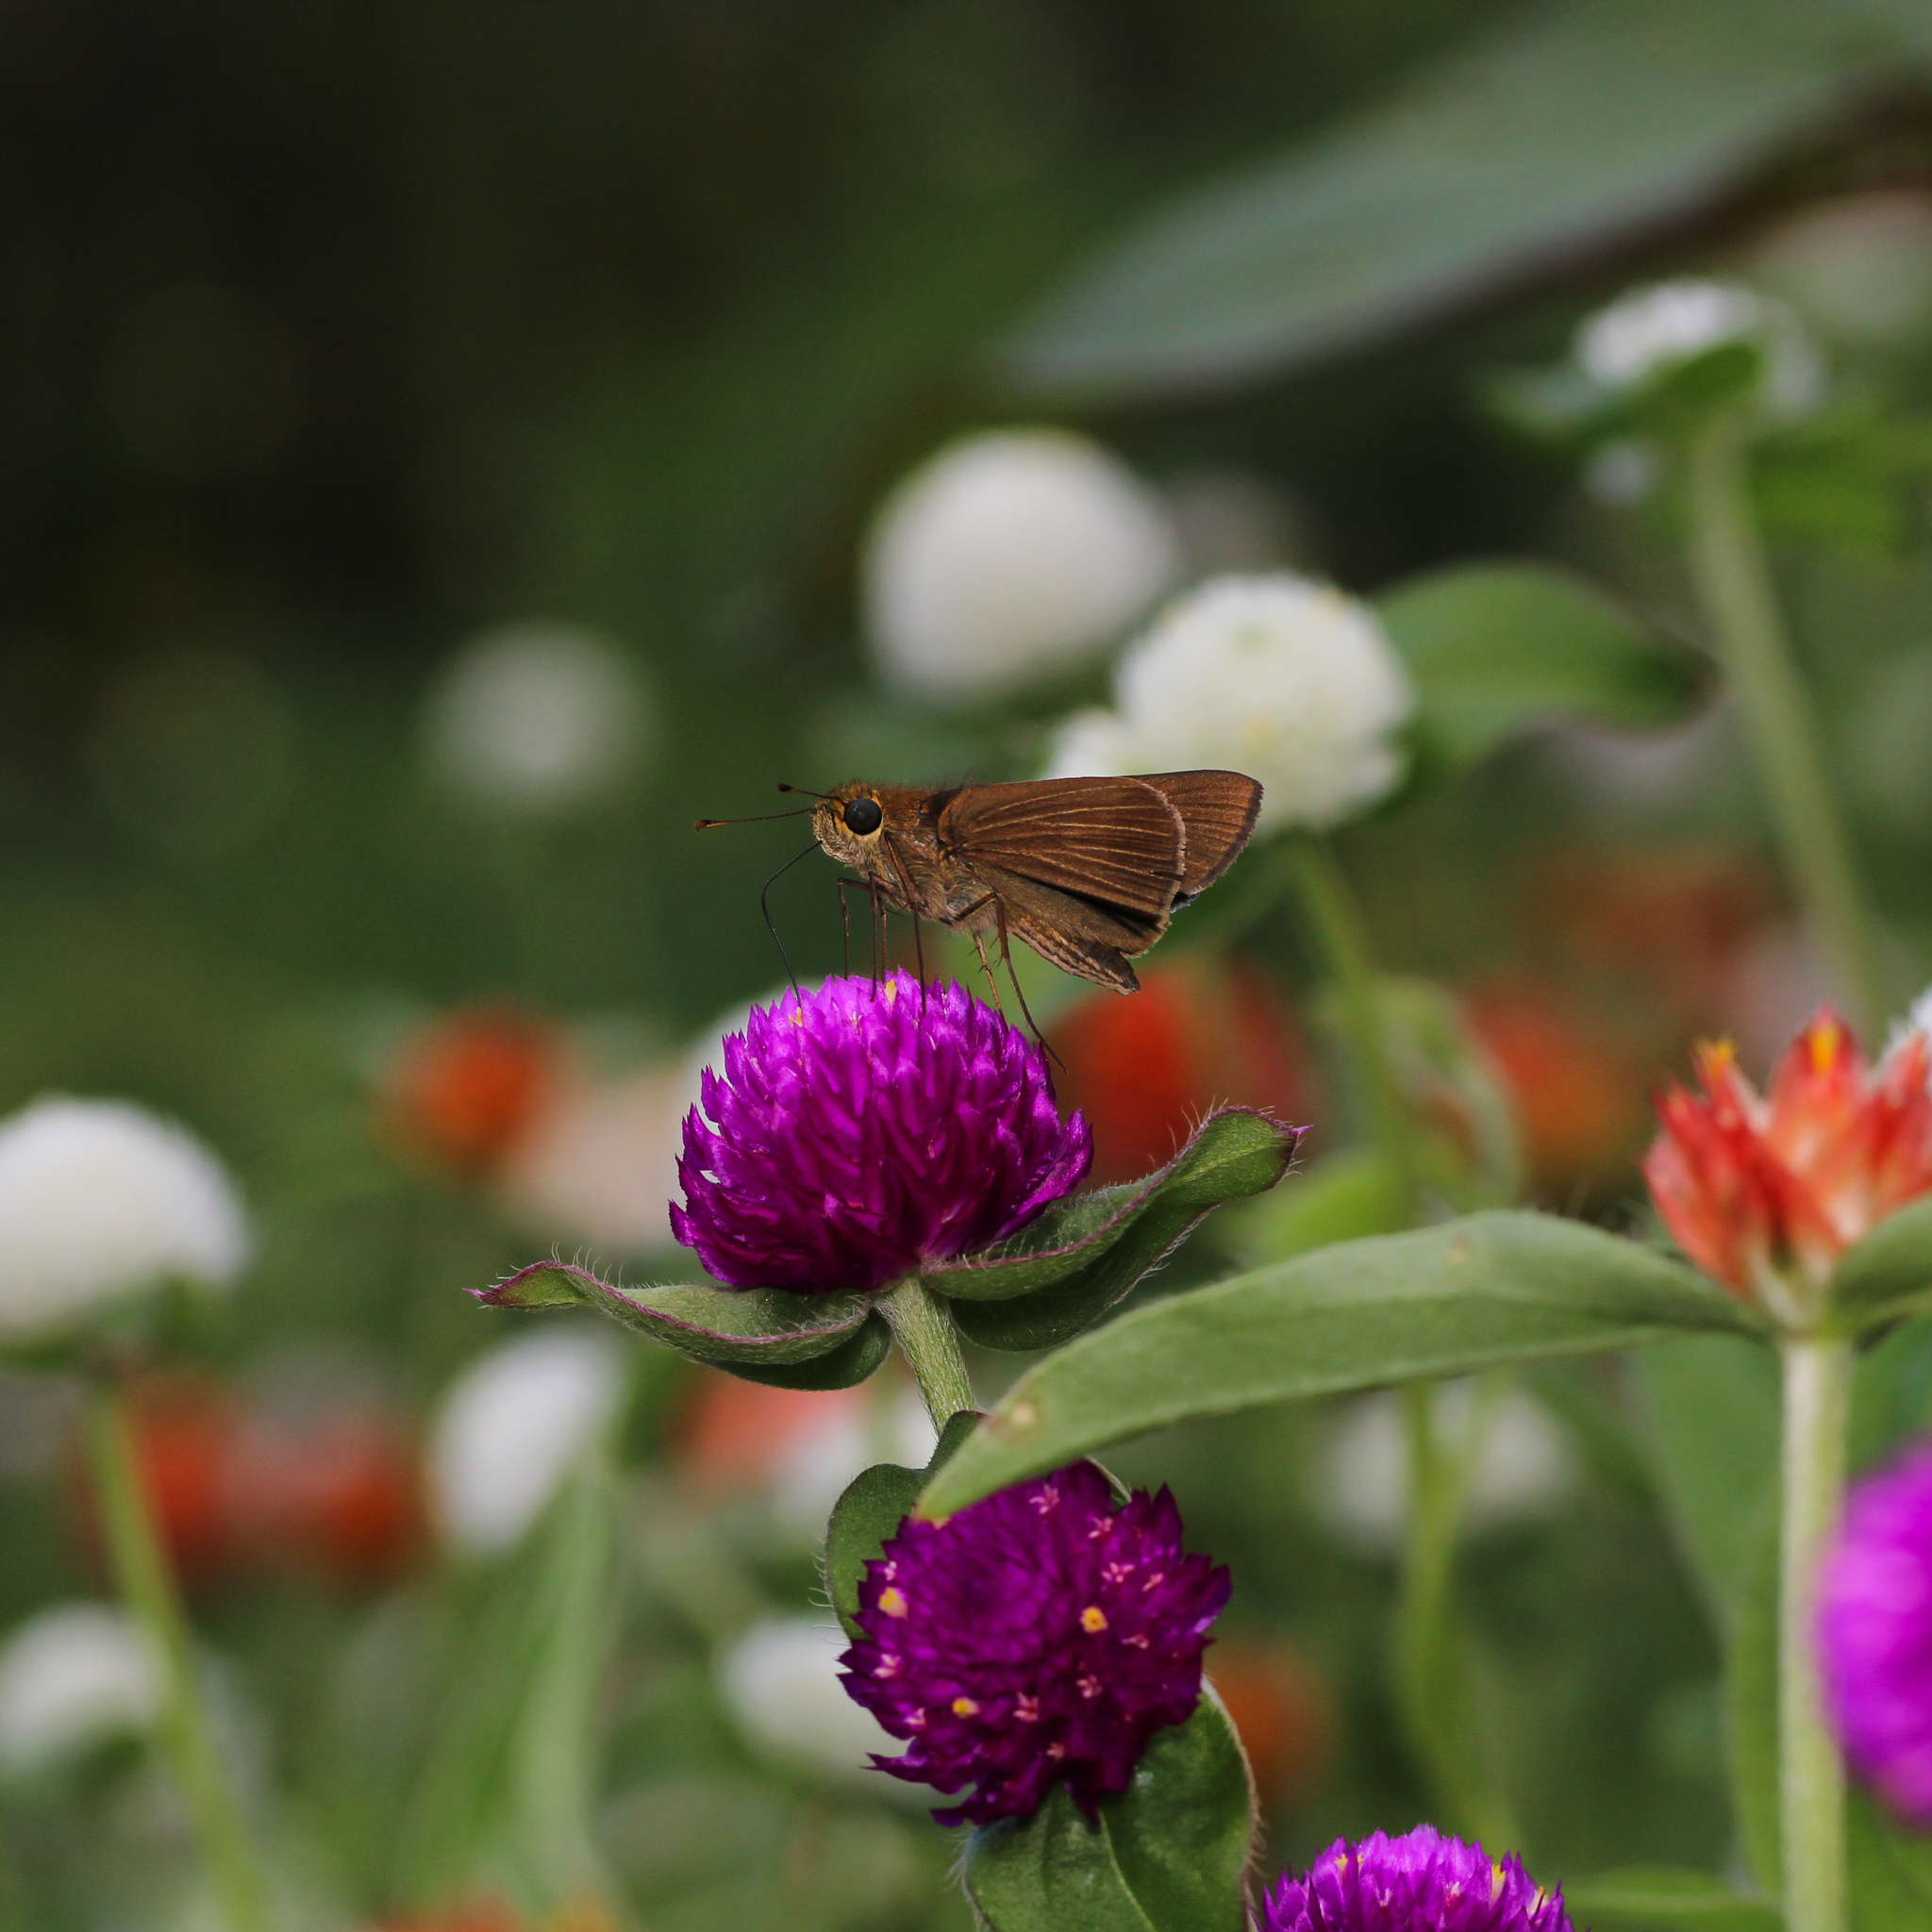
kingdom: Animalia
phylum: Arthropoda
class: Insecta
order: Lepidoptera
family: Hesperiidae
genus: Panoquina
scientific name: Panoquina ocola
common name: Ocola skipper
